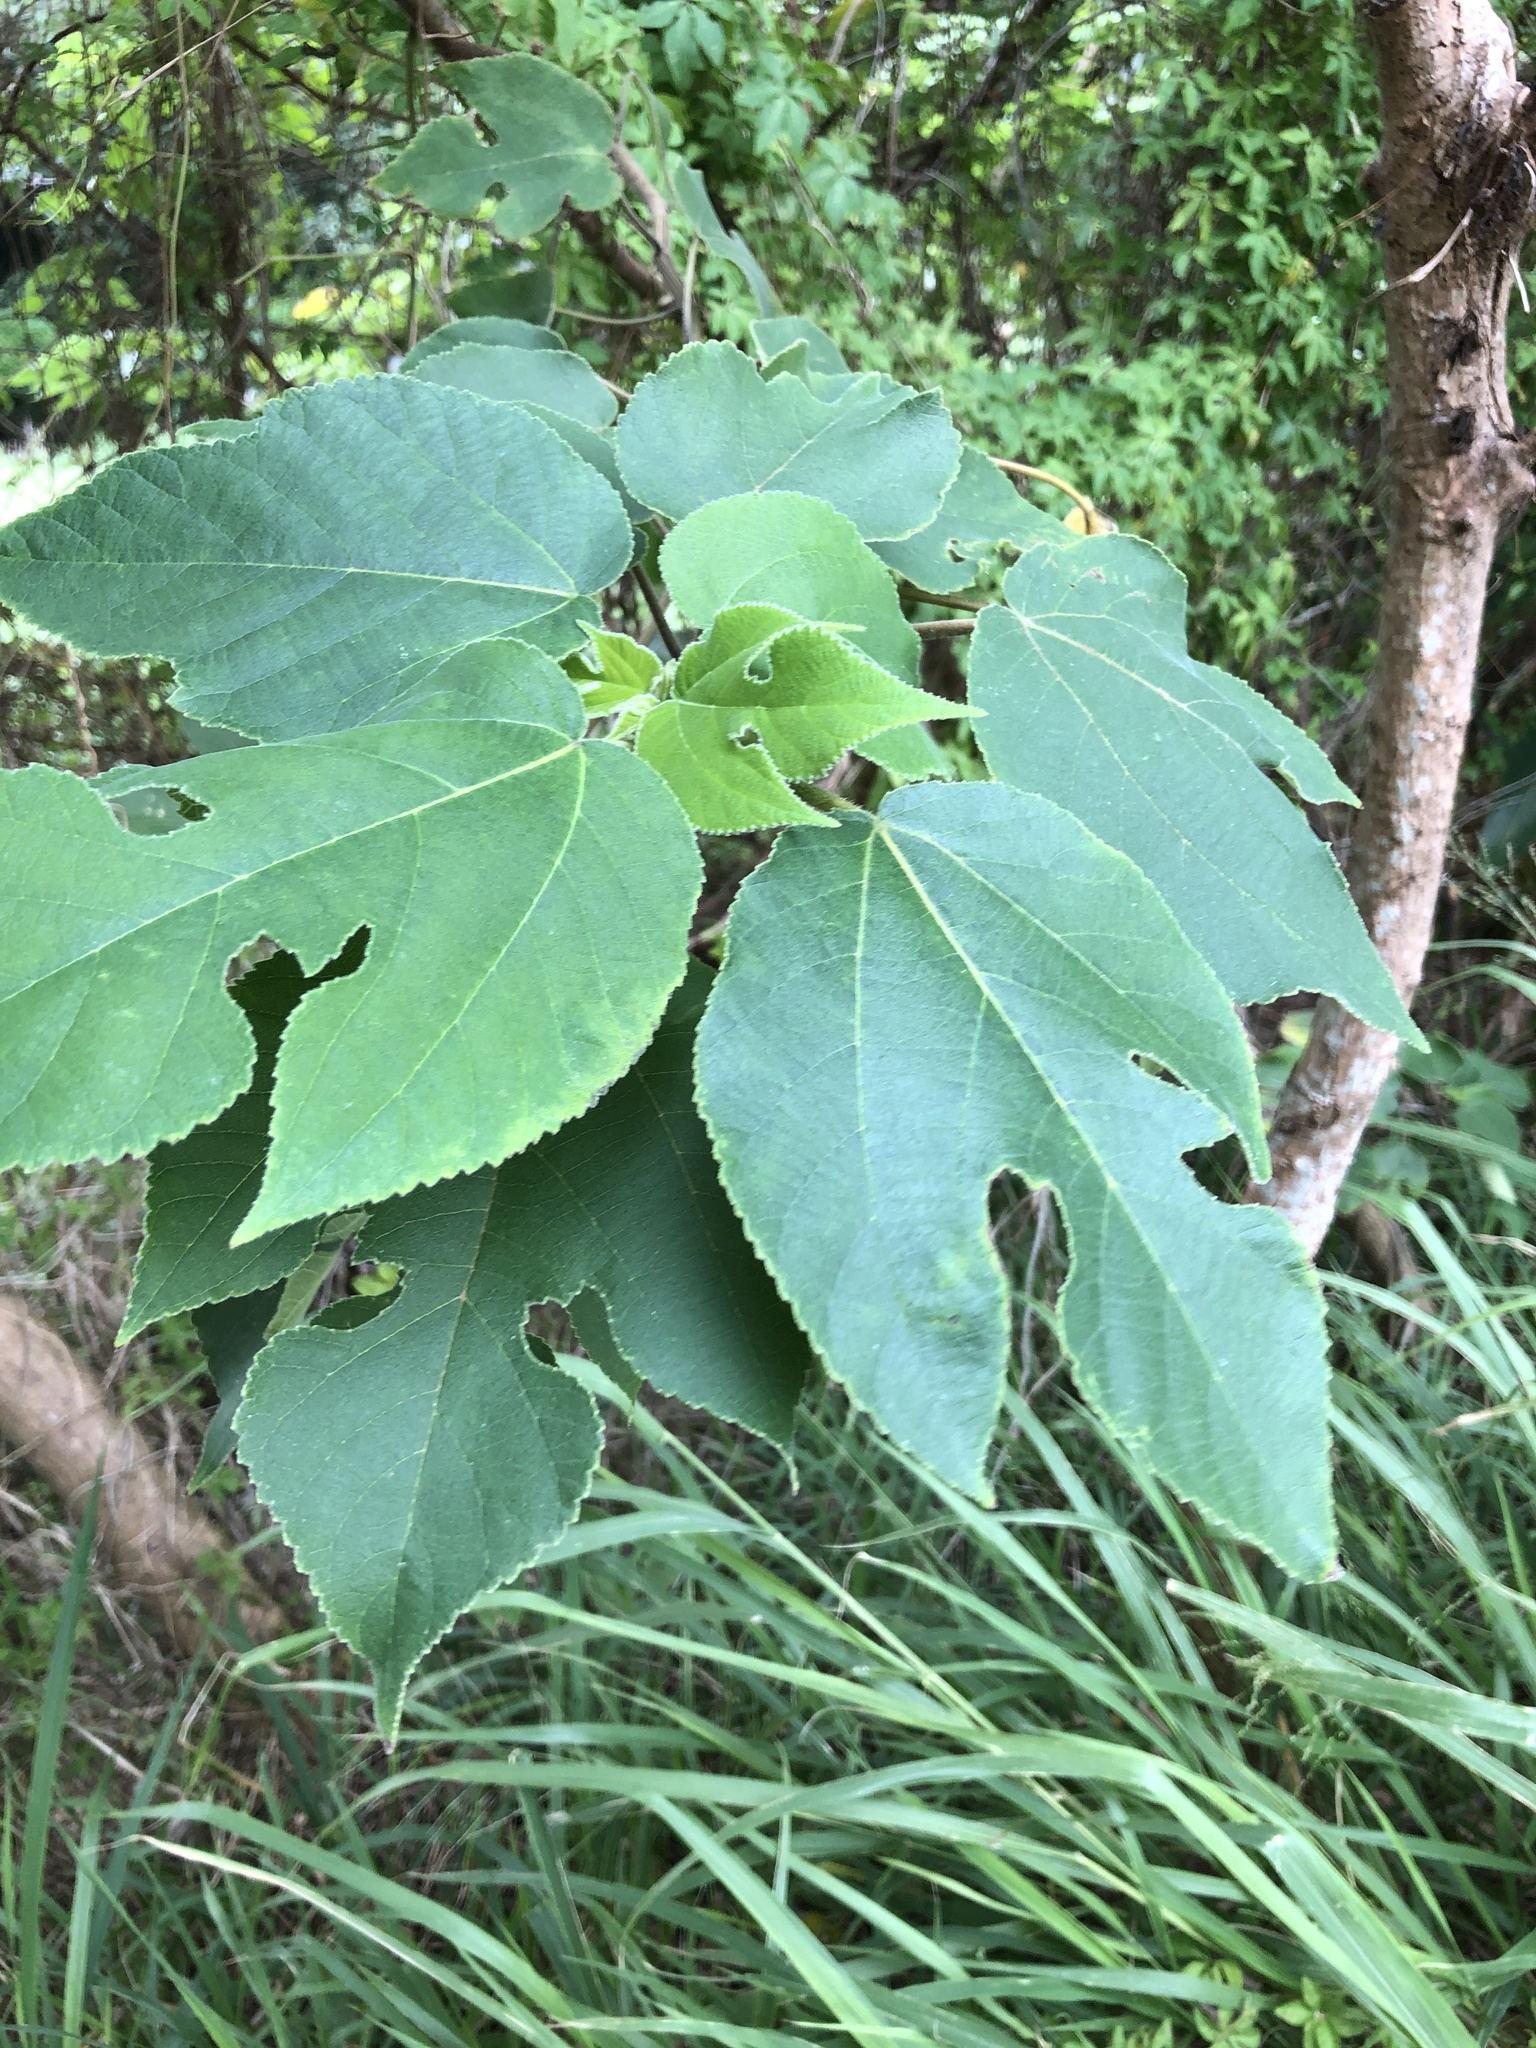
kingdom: Plantae
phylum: Tracheophyta
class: Magnoliopsida
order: Rosales
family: Moraceae
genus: Broussonetia
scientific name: Broussonetia papyrifera
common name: Paper mulberry
